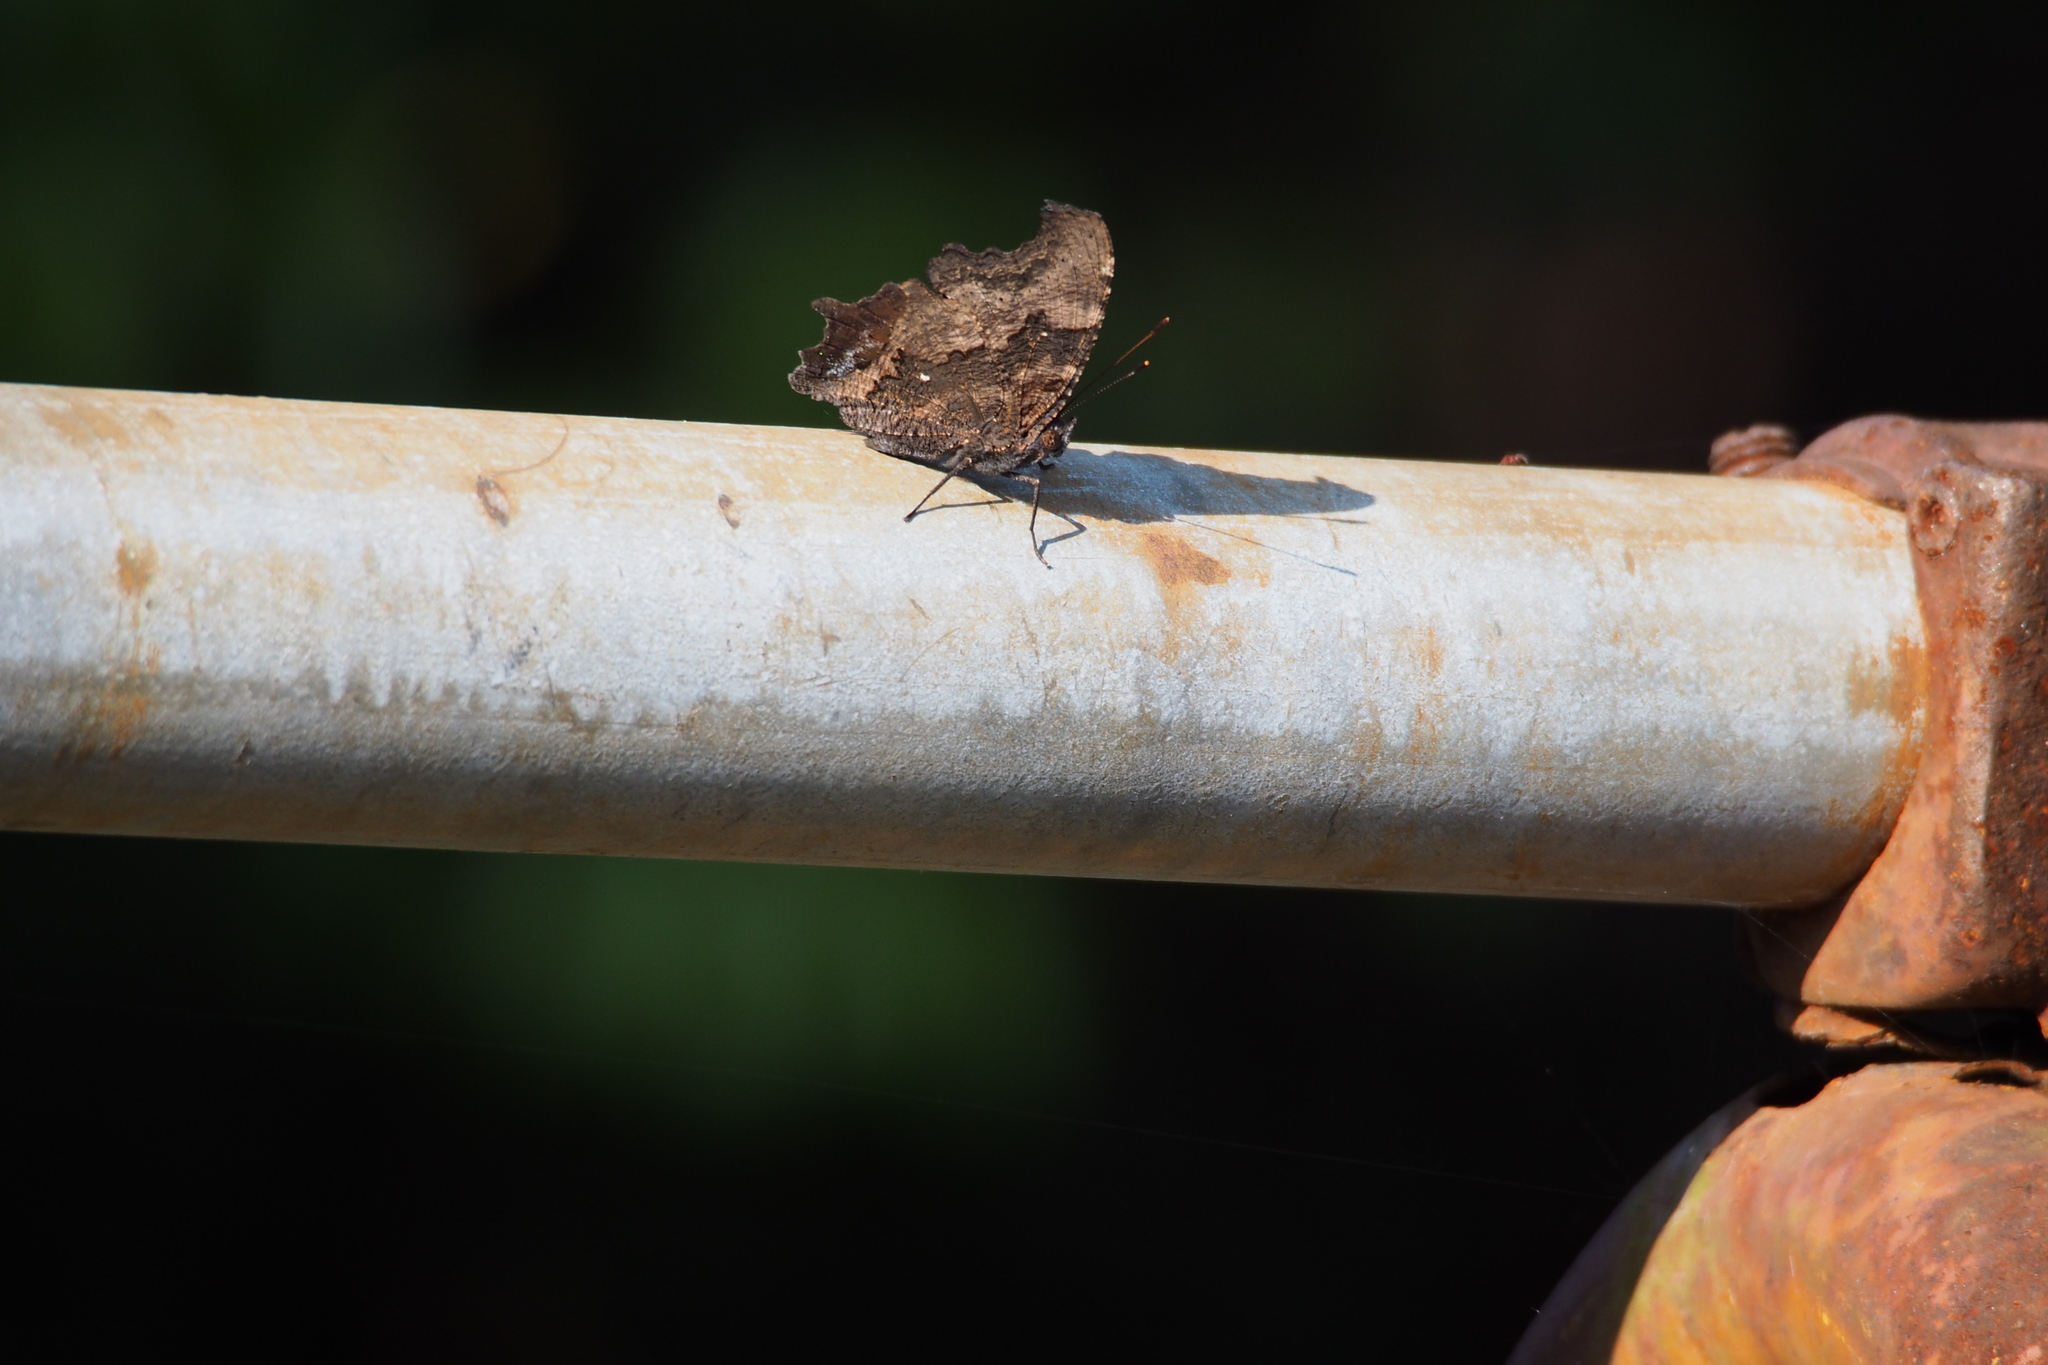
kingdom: Animalia
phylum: Arthropoda
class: Insecta
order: Lepidoptera
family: Nymphalidae
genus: Vanessa
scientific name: Vanessa Kaniska canace
